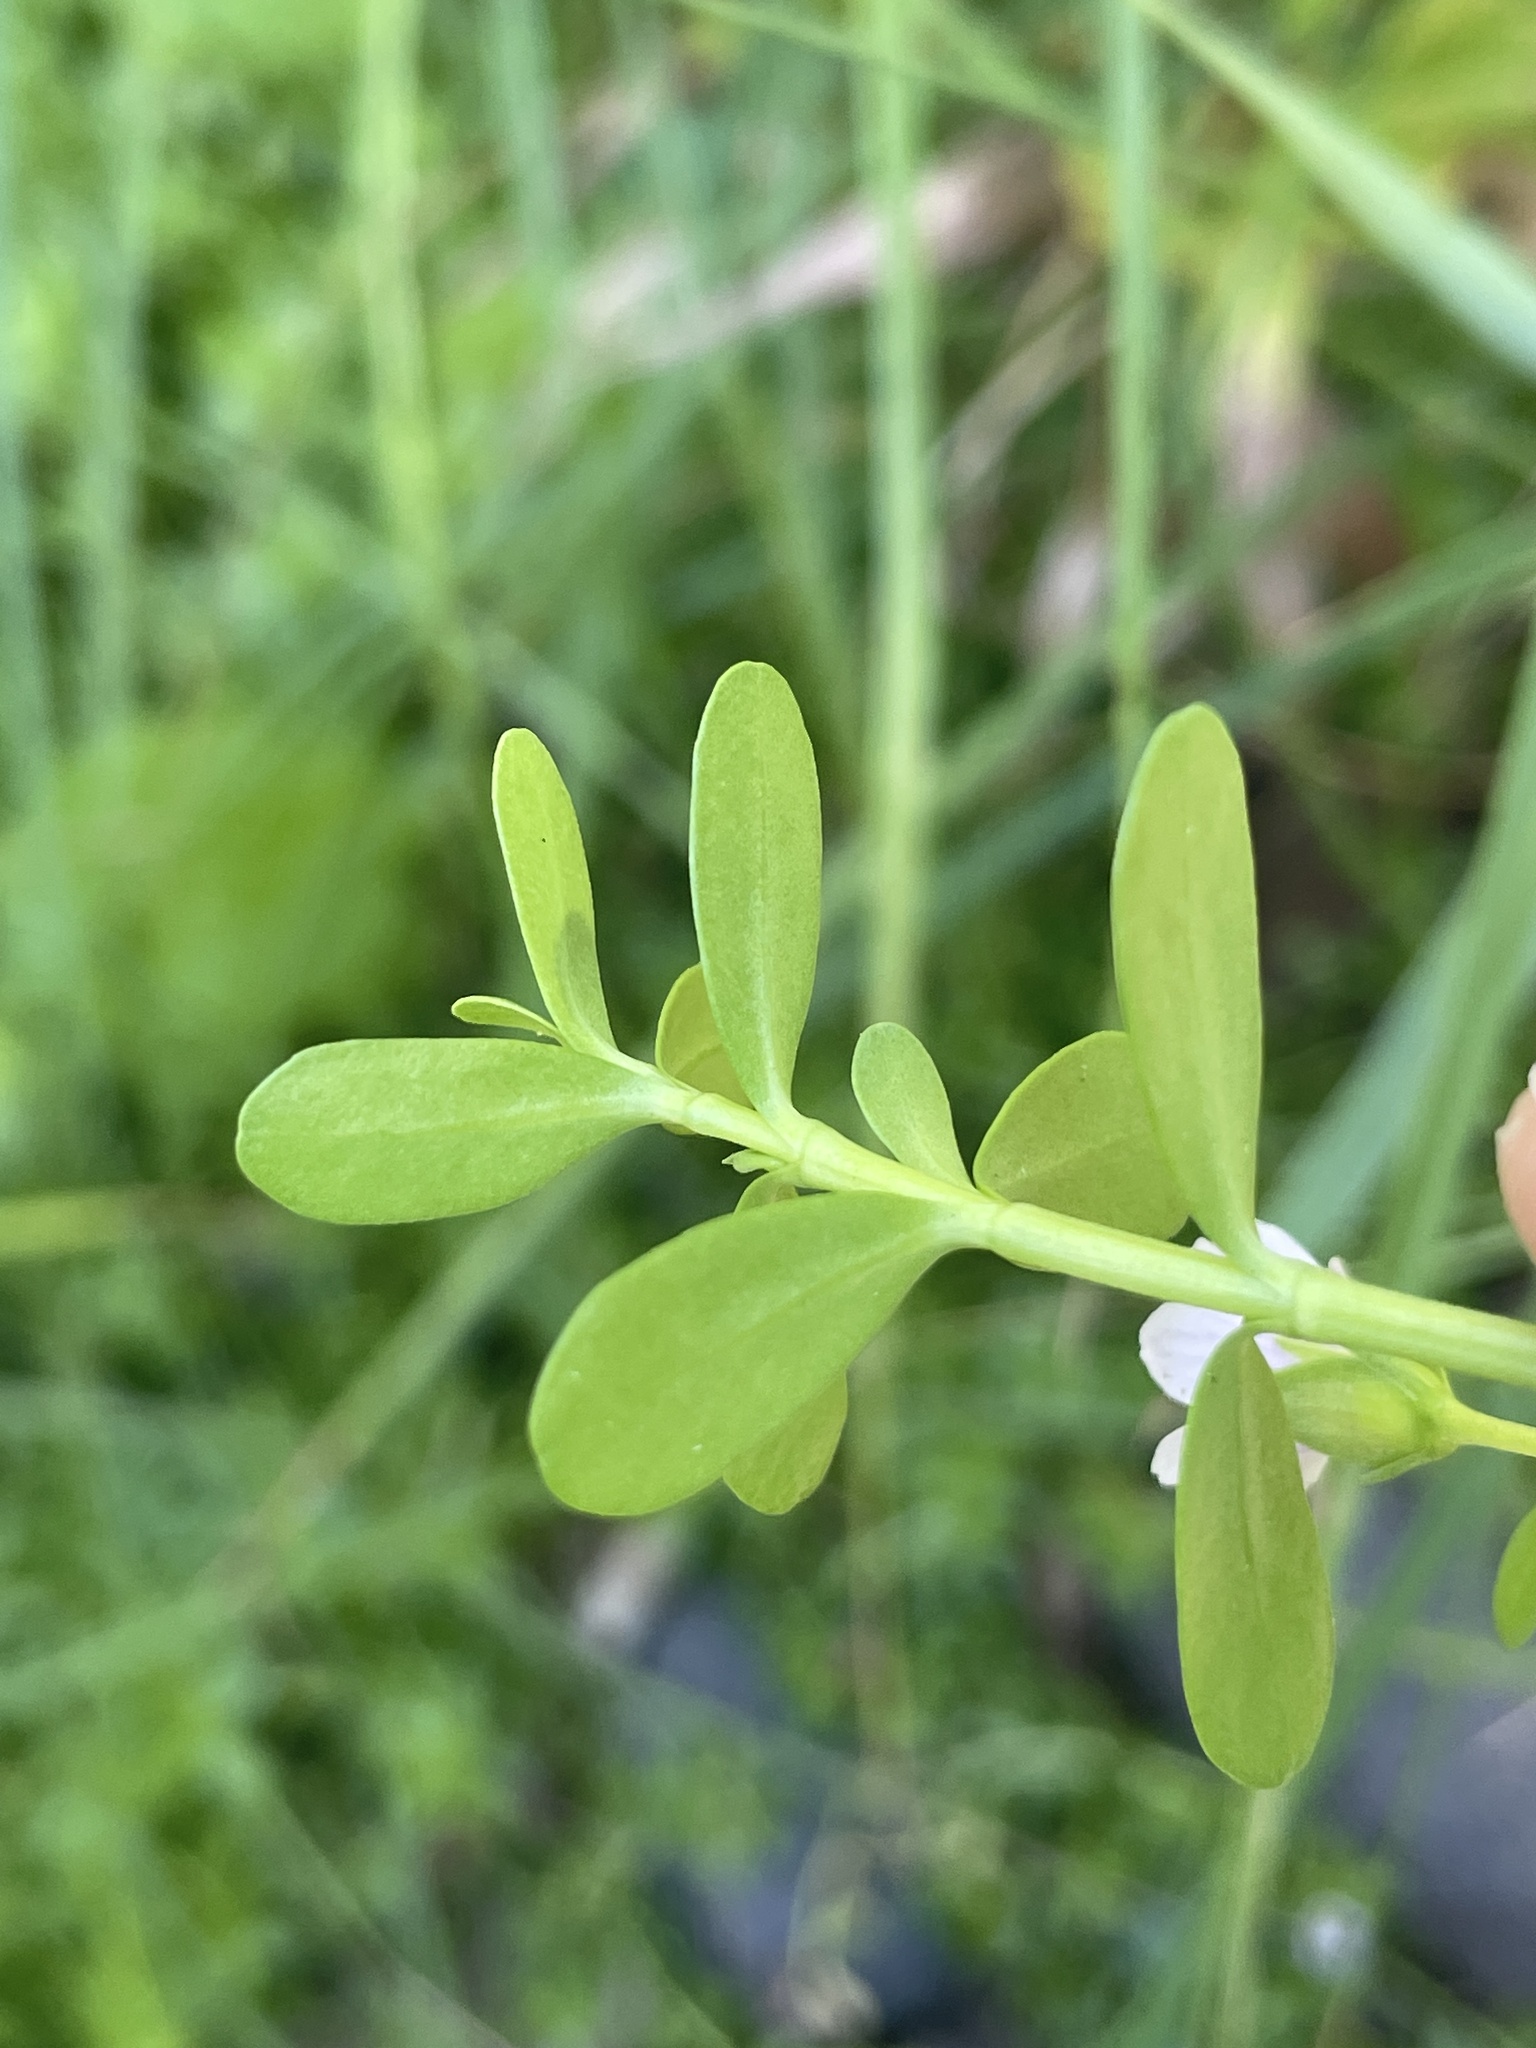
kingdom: Plantae
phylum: Tracheophyta
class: Magnoliopsida
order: Lamiales
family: Plantaginaceae
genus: Bacopa
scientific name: Bacopa monnieri
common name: Indian-pennywort
